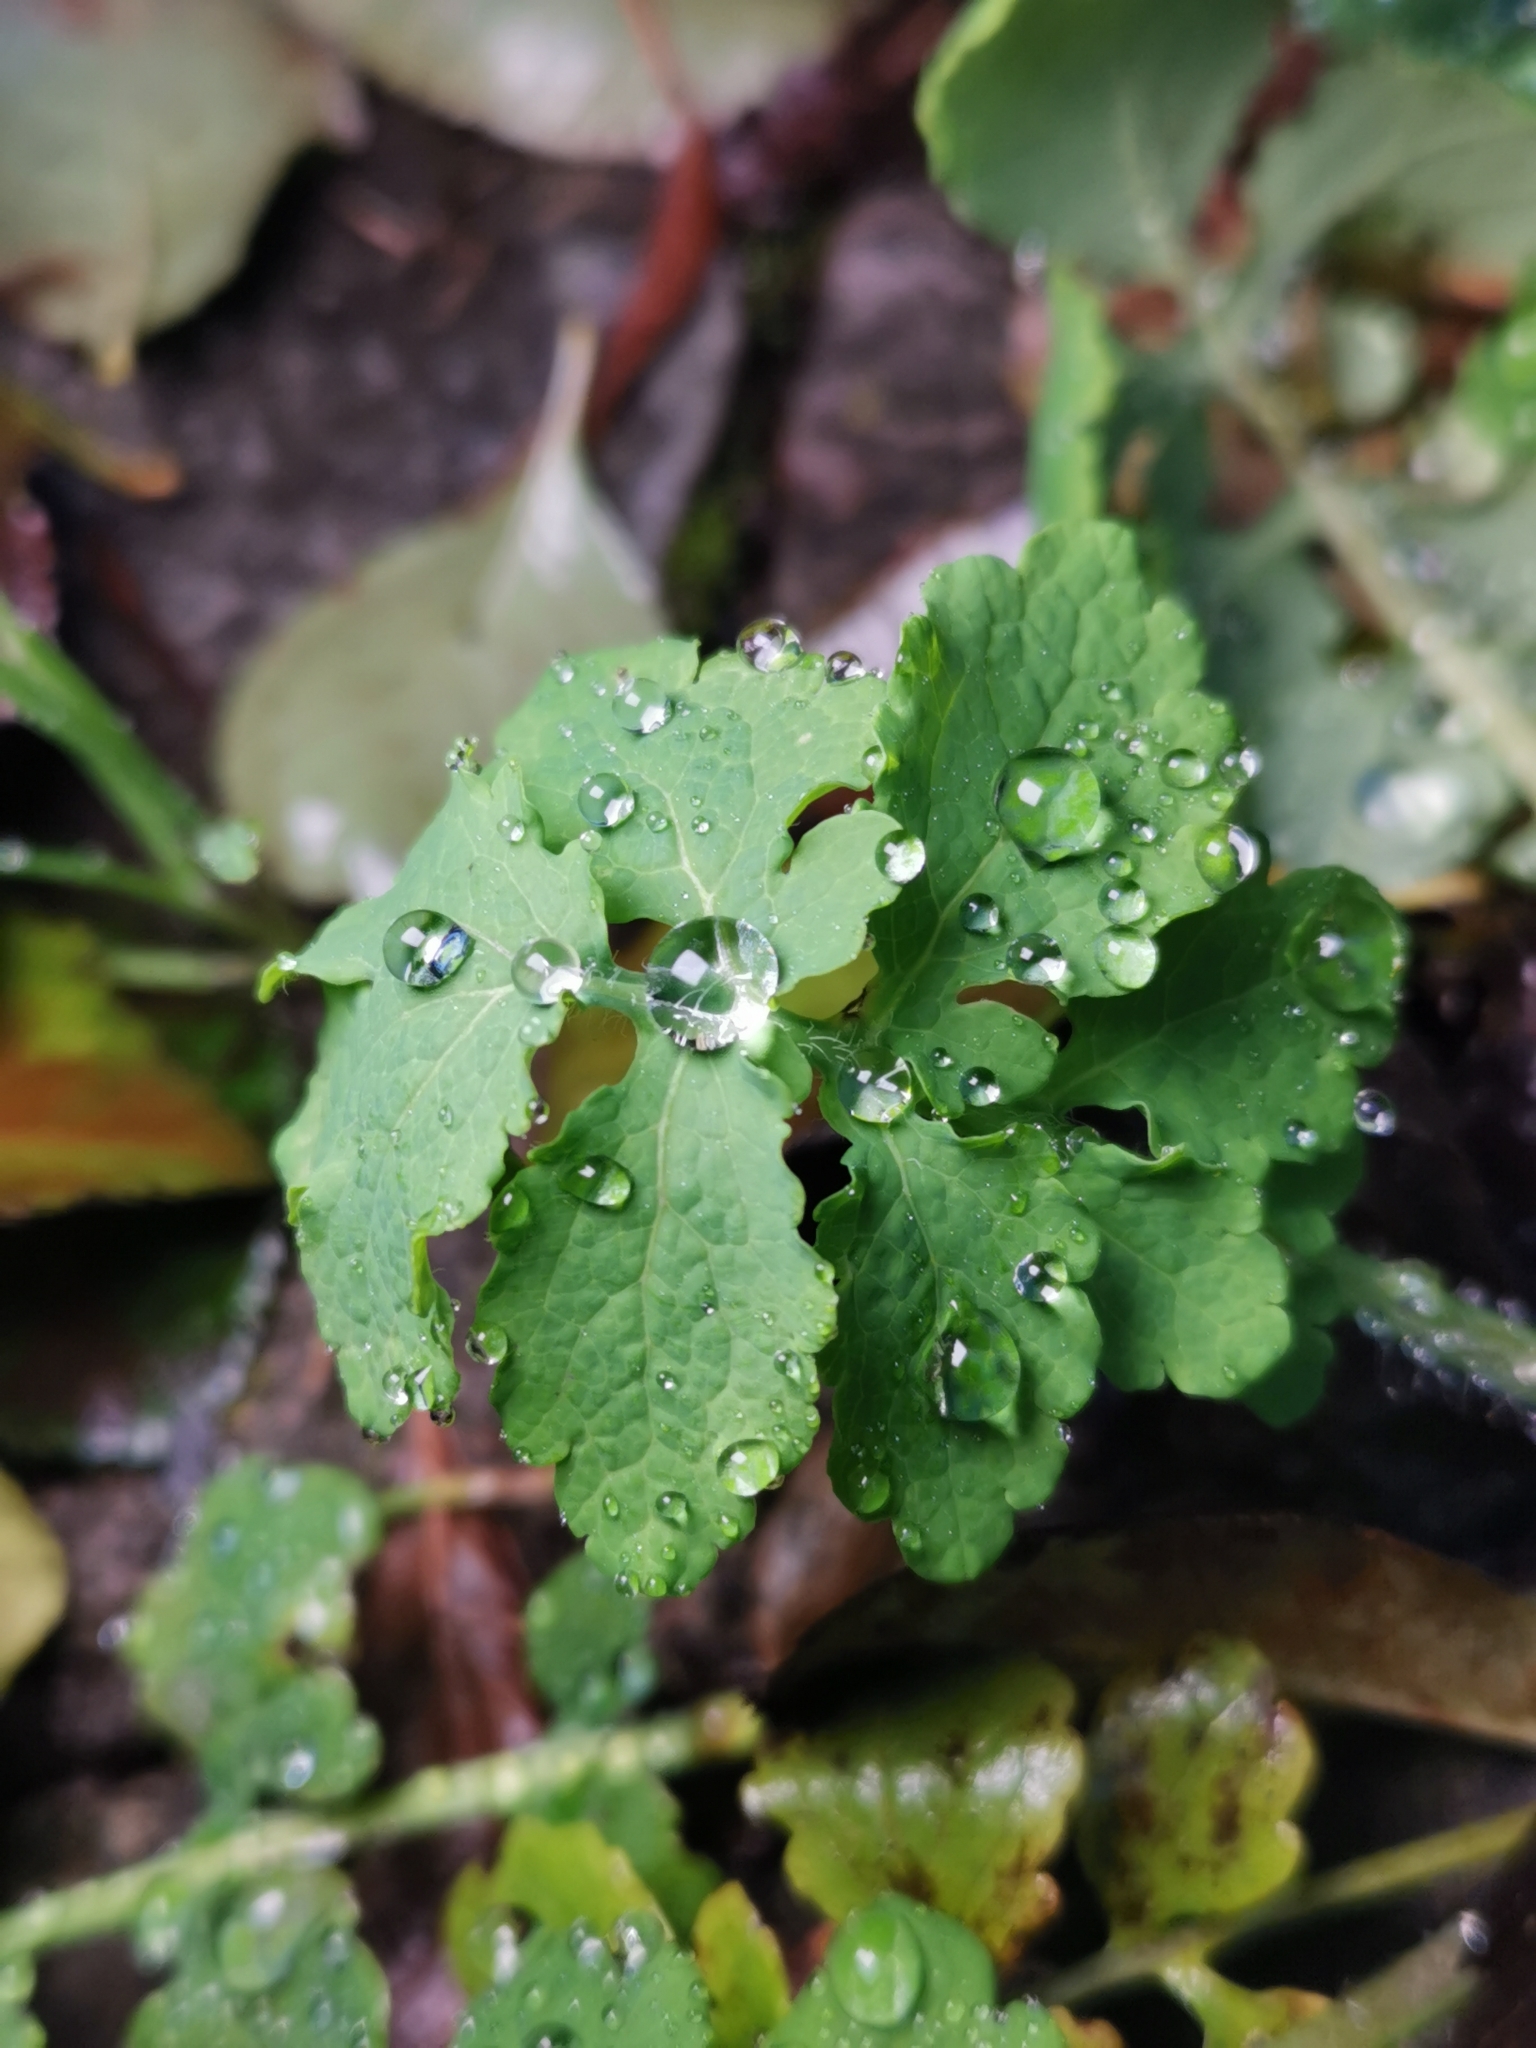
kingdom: Plantae
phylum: Tracheophyta
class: Magnoliopsida
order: Ranunculales
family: Papaveraceae
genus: Chelidonium
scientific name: Chelidonium majus
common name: Greater celandine
